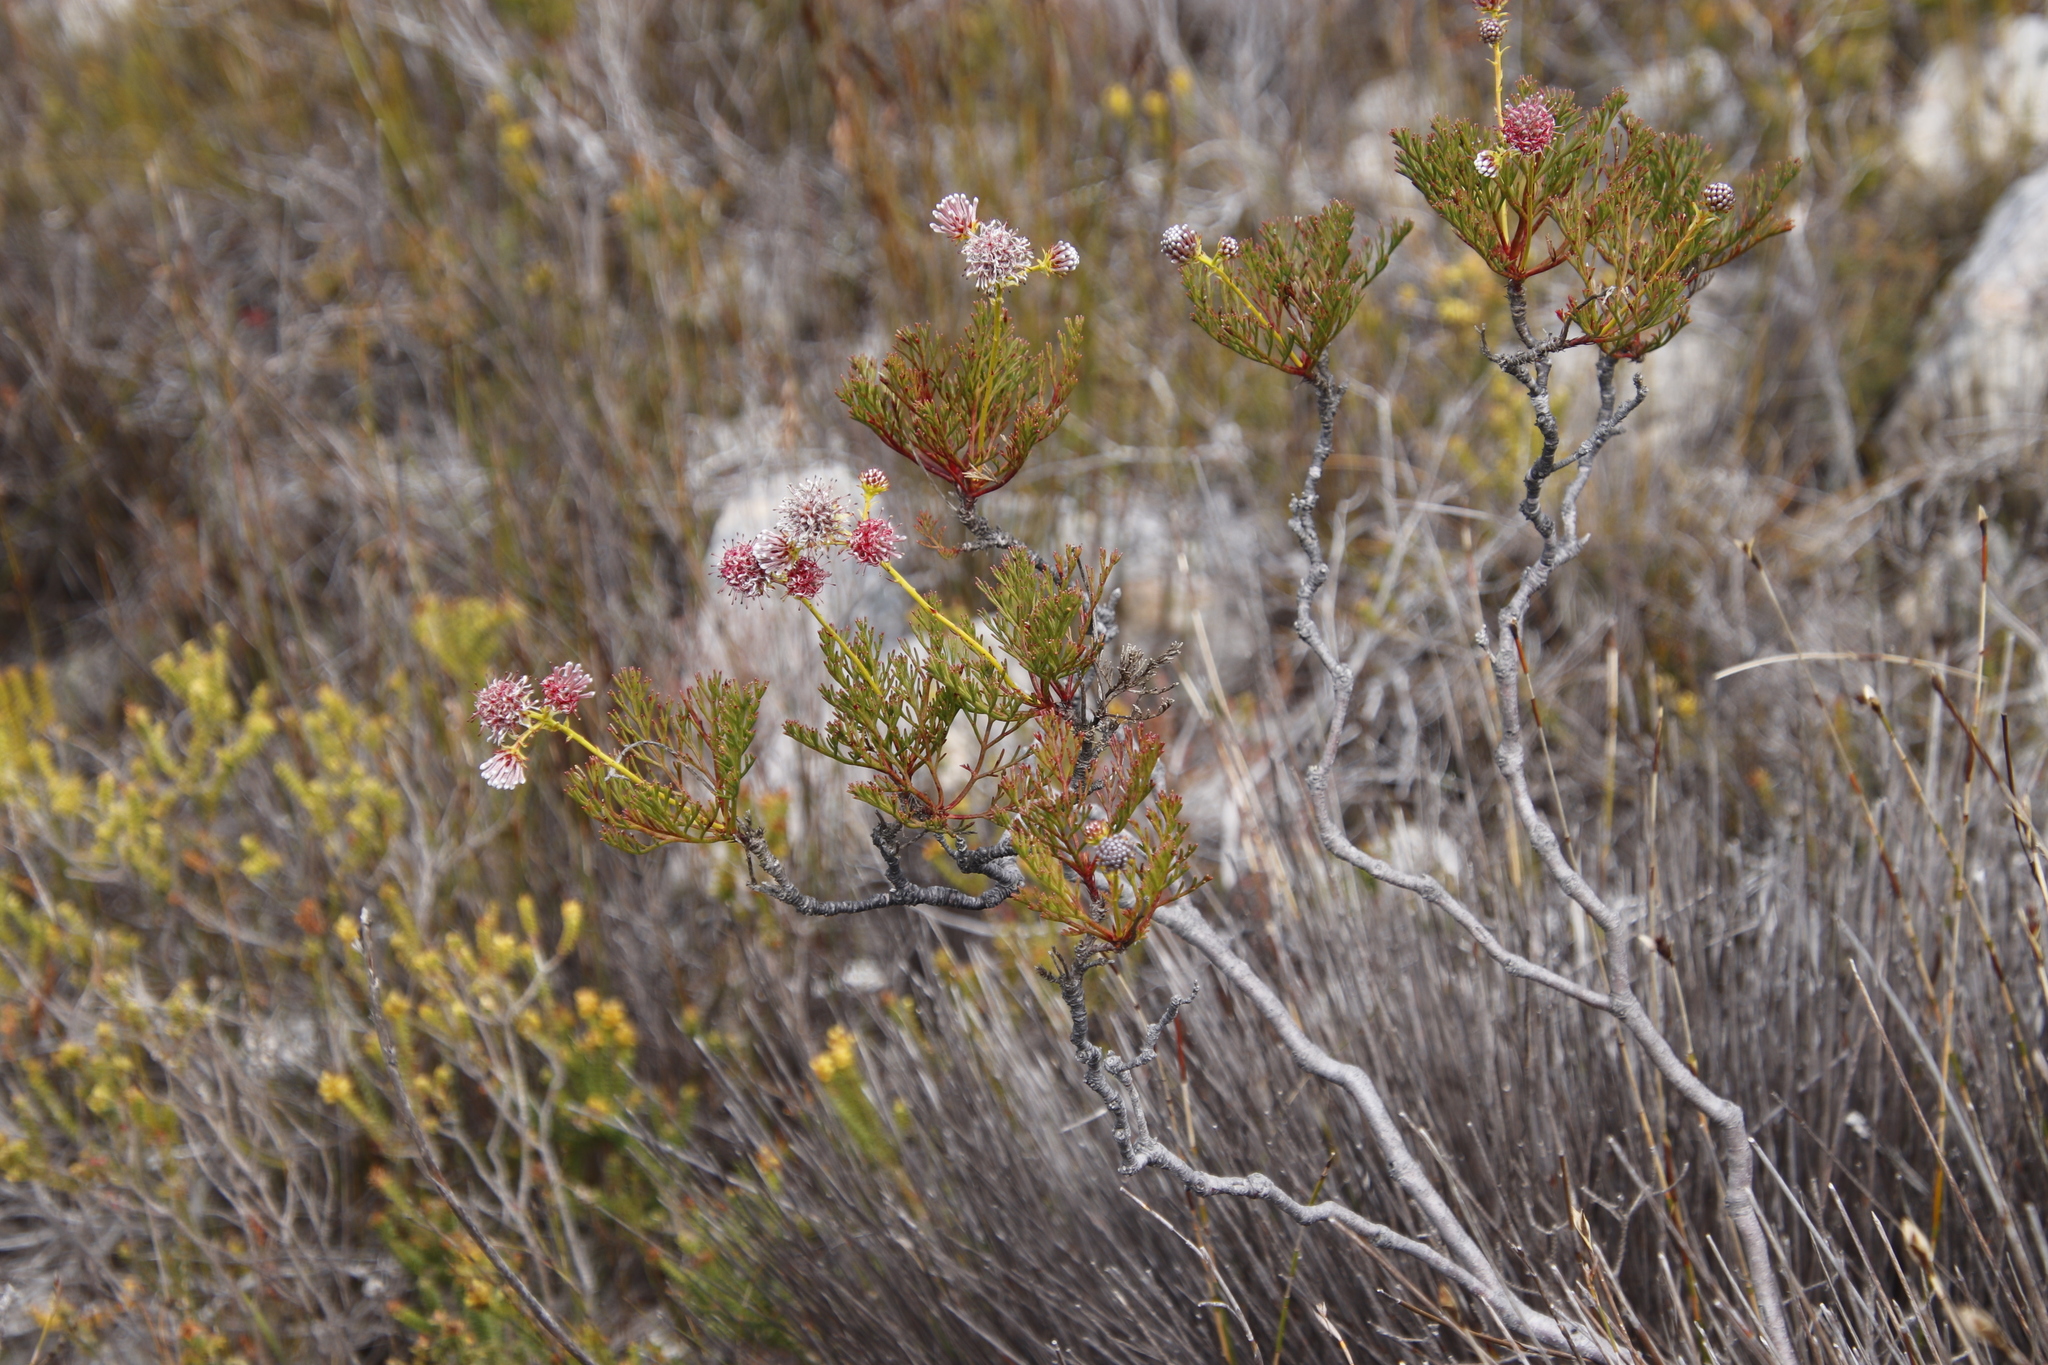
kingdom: Plantae
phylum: Tracheophyta
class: Magnoliopsida
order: Proteales
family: Proteaceae
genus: Serruria
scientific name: Serruria elongata
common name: Long-stalk spiderhead
